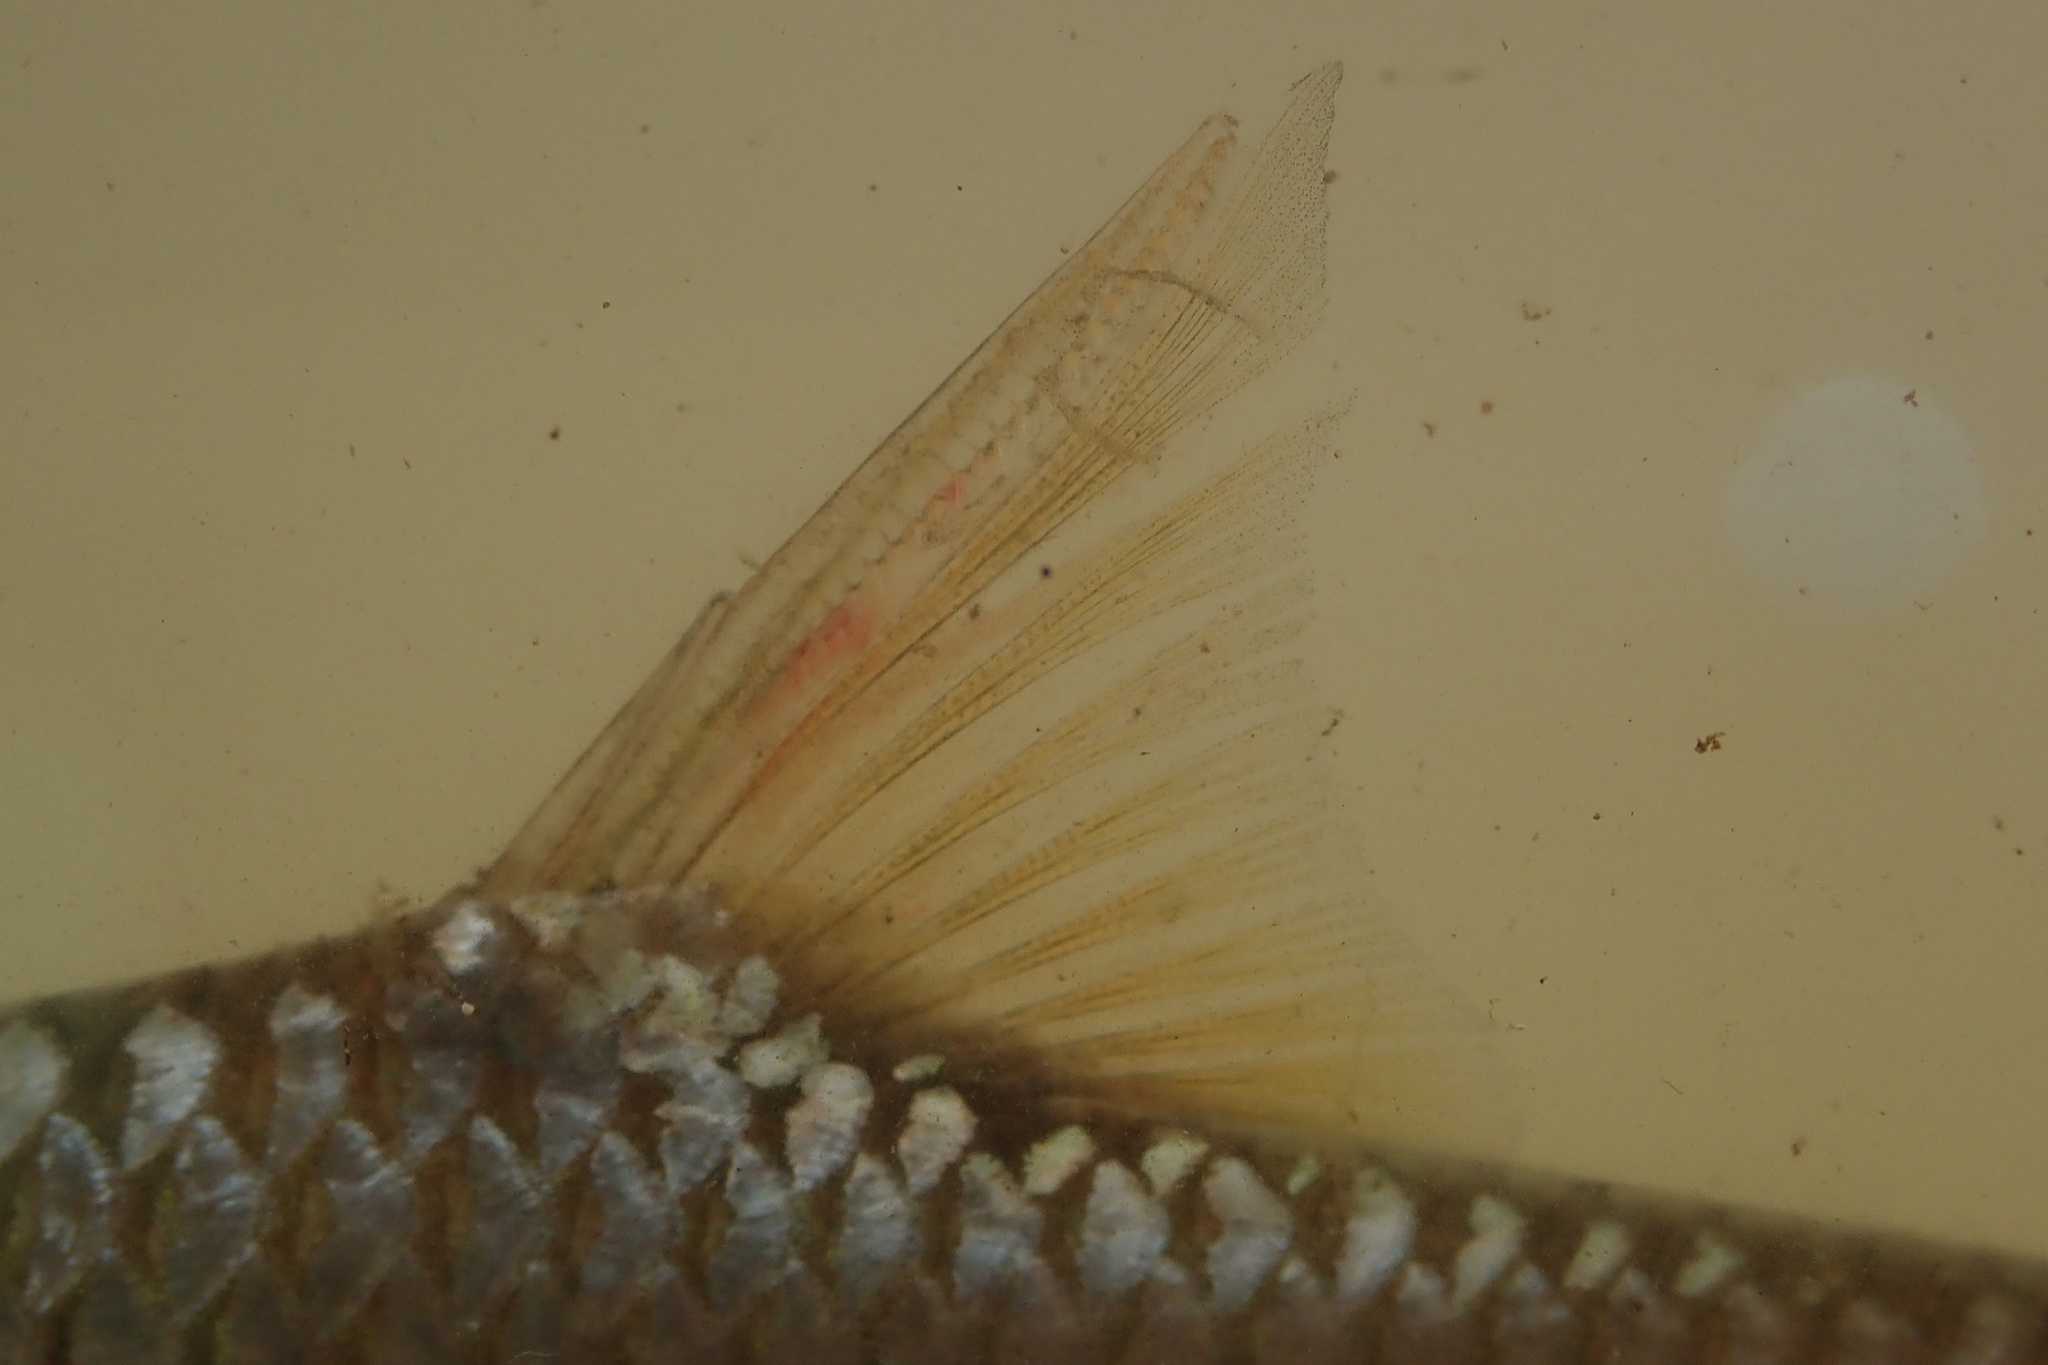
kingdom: Animalia
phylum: Chordata
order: Cypriniformes
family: Cyprinidae
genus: Enteromius
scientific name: Enteromius afrohamiltoni
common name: Hamilton's barb
